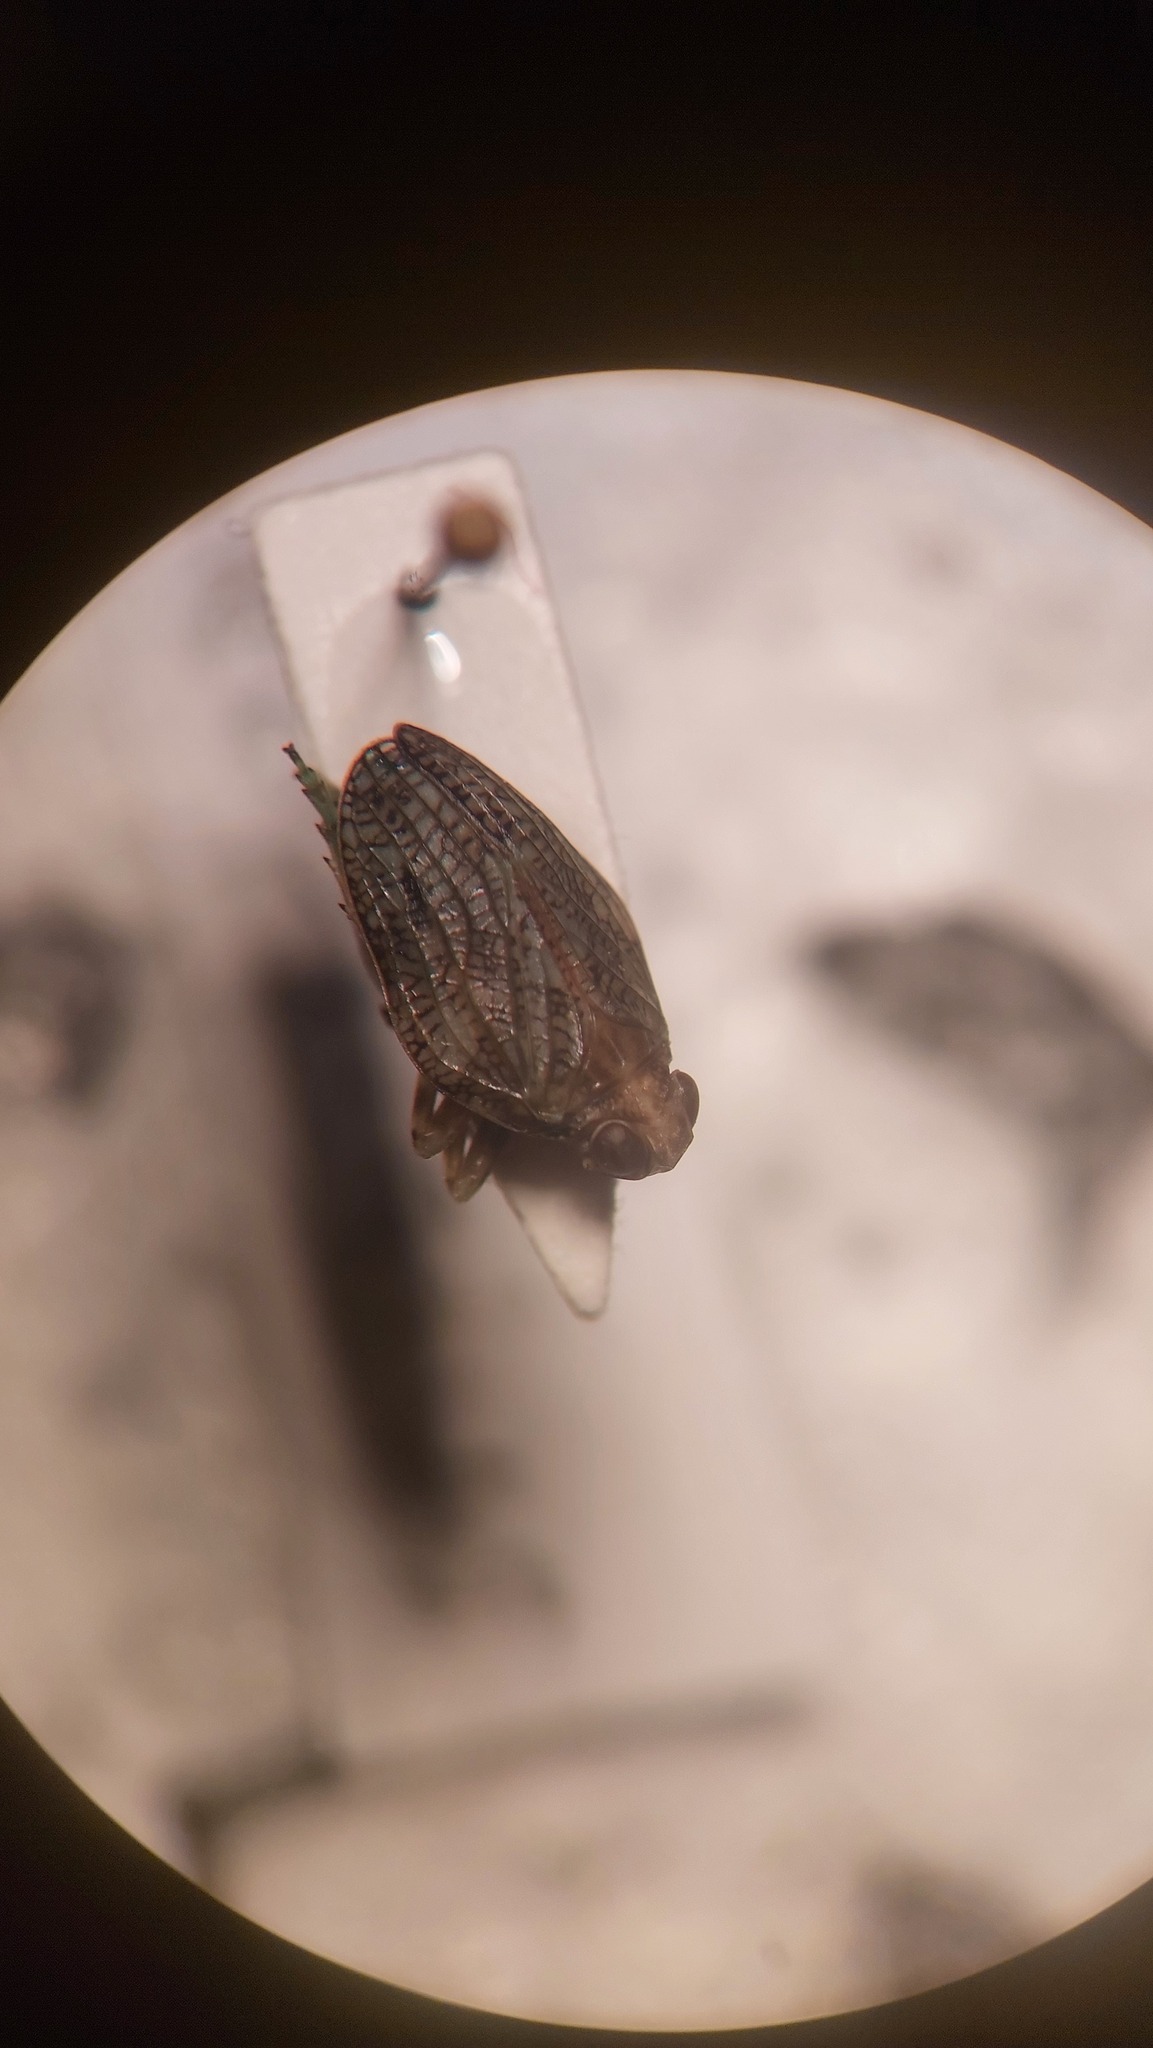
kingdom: Animalia
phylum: Arthropoda
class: Insecta
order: Hemiptera
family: Issidae
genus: Issus
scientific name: Issus coleoptratus
